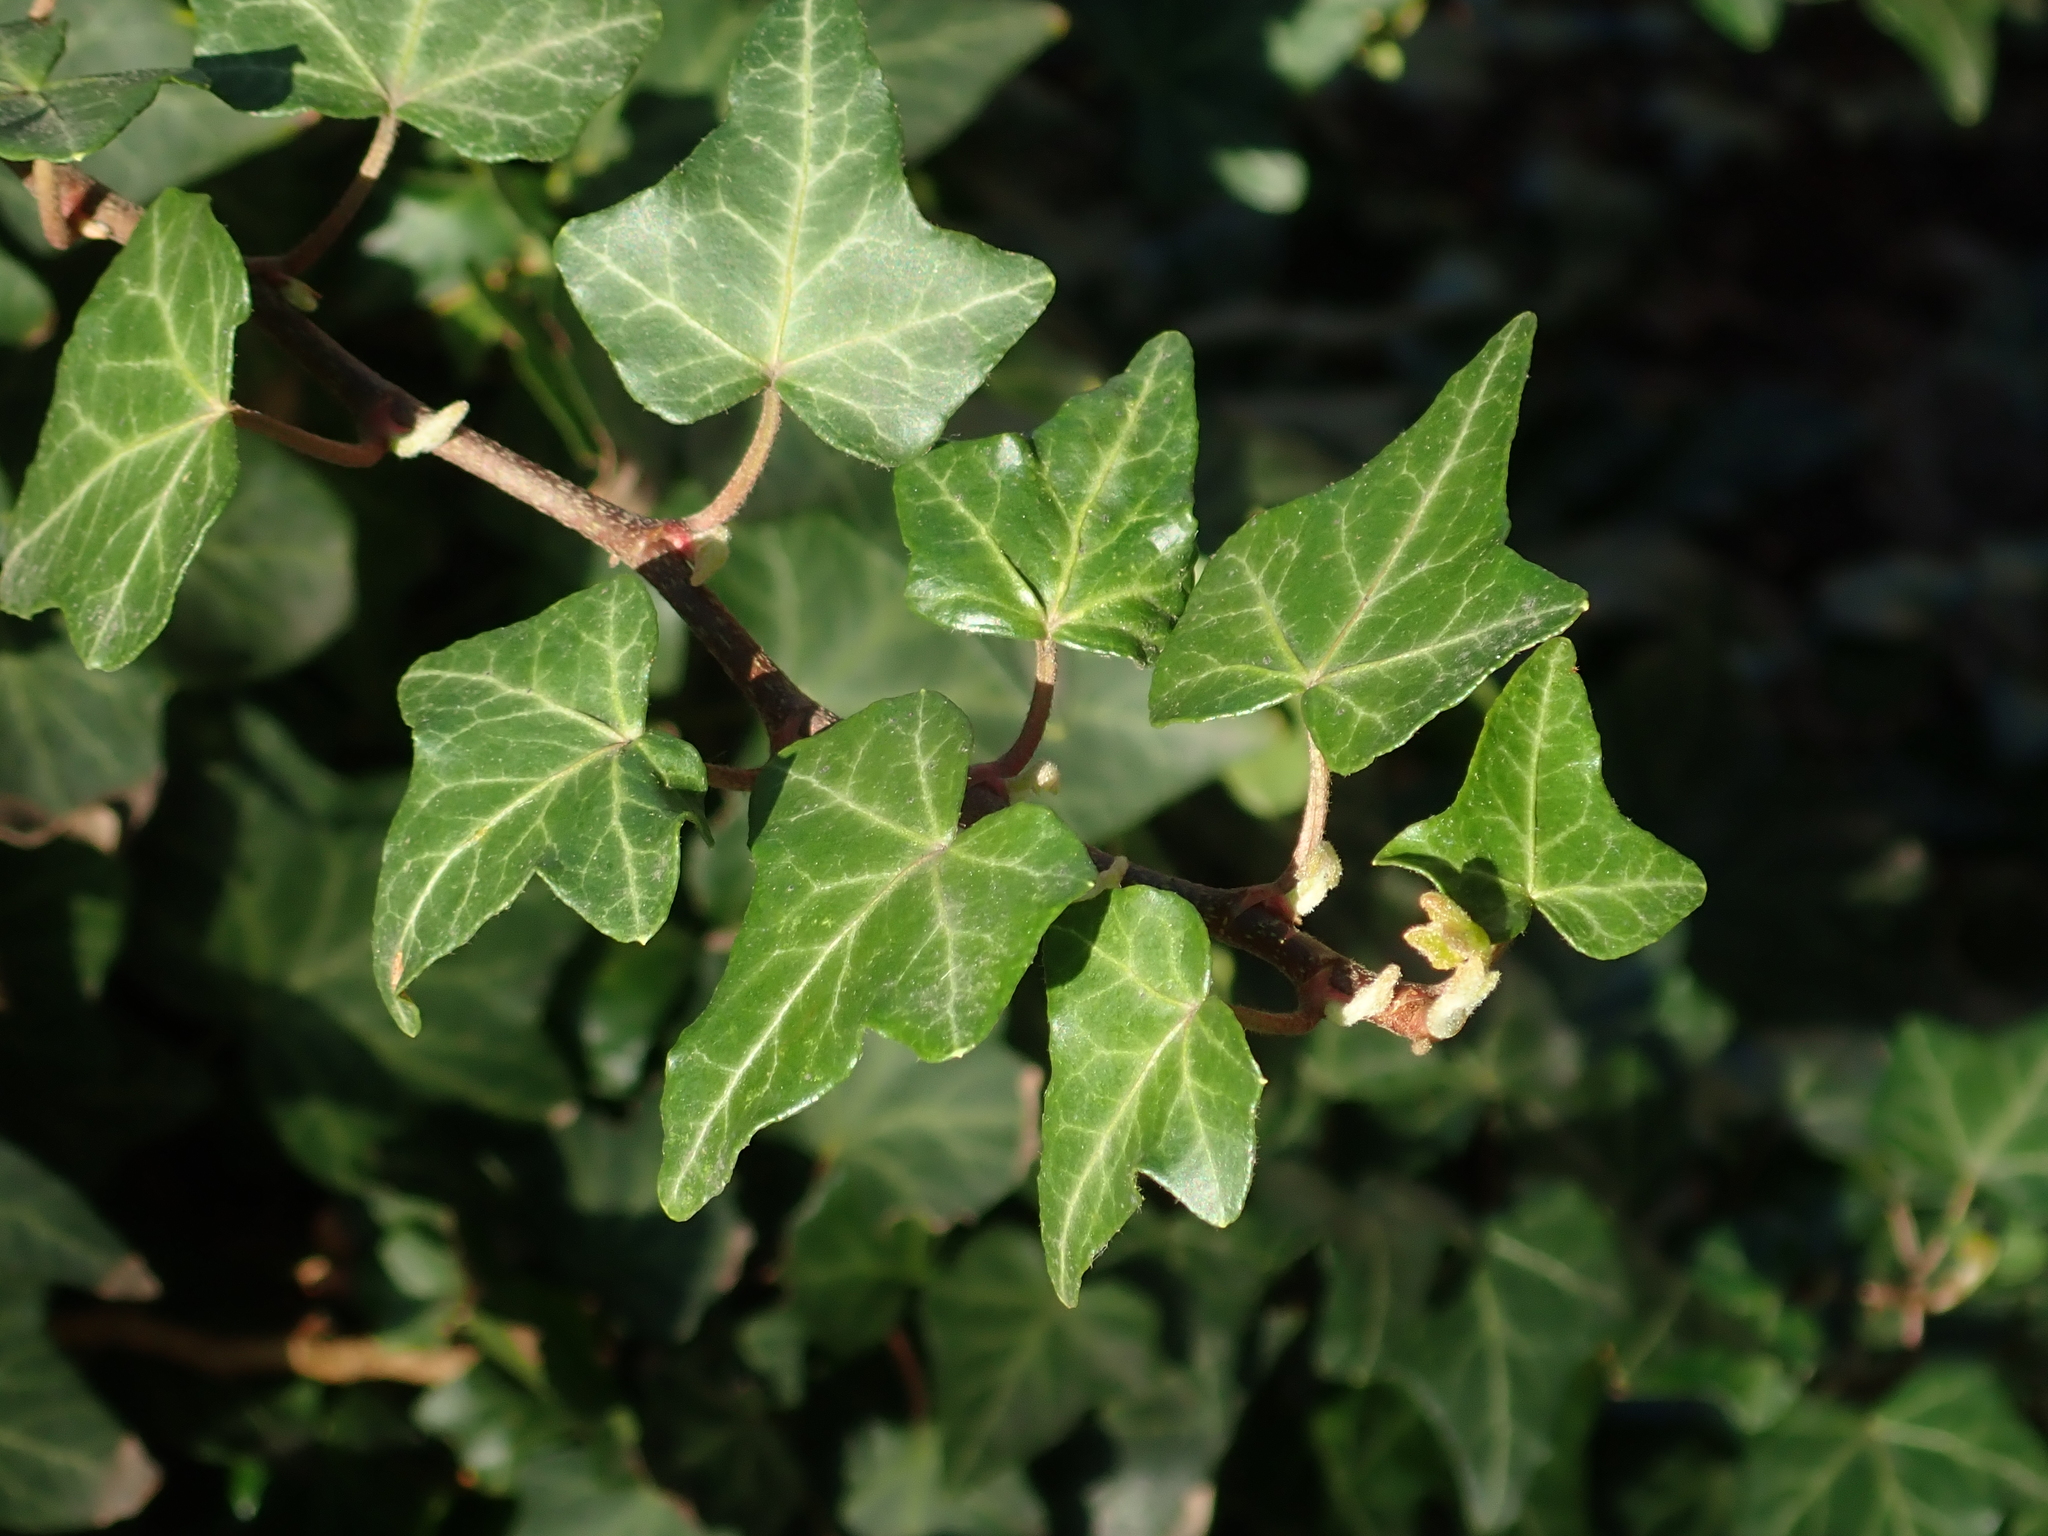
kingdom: Plantae
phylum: Tracheophyta
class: Magnoliopsida
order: Apiales
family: Araliaceae
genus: Hedera
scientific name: Hedera helix
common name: Ivy
